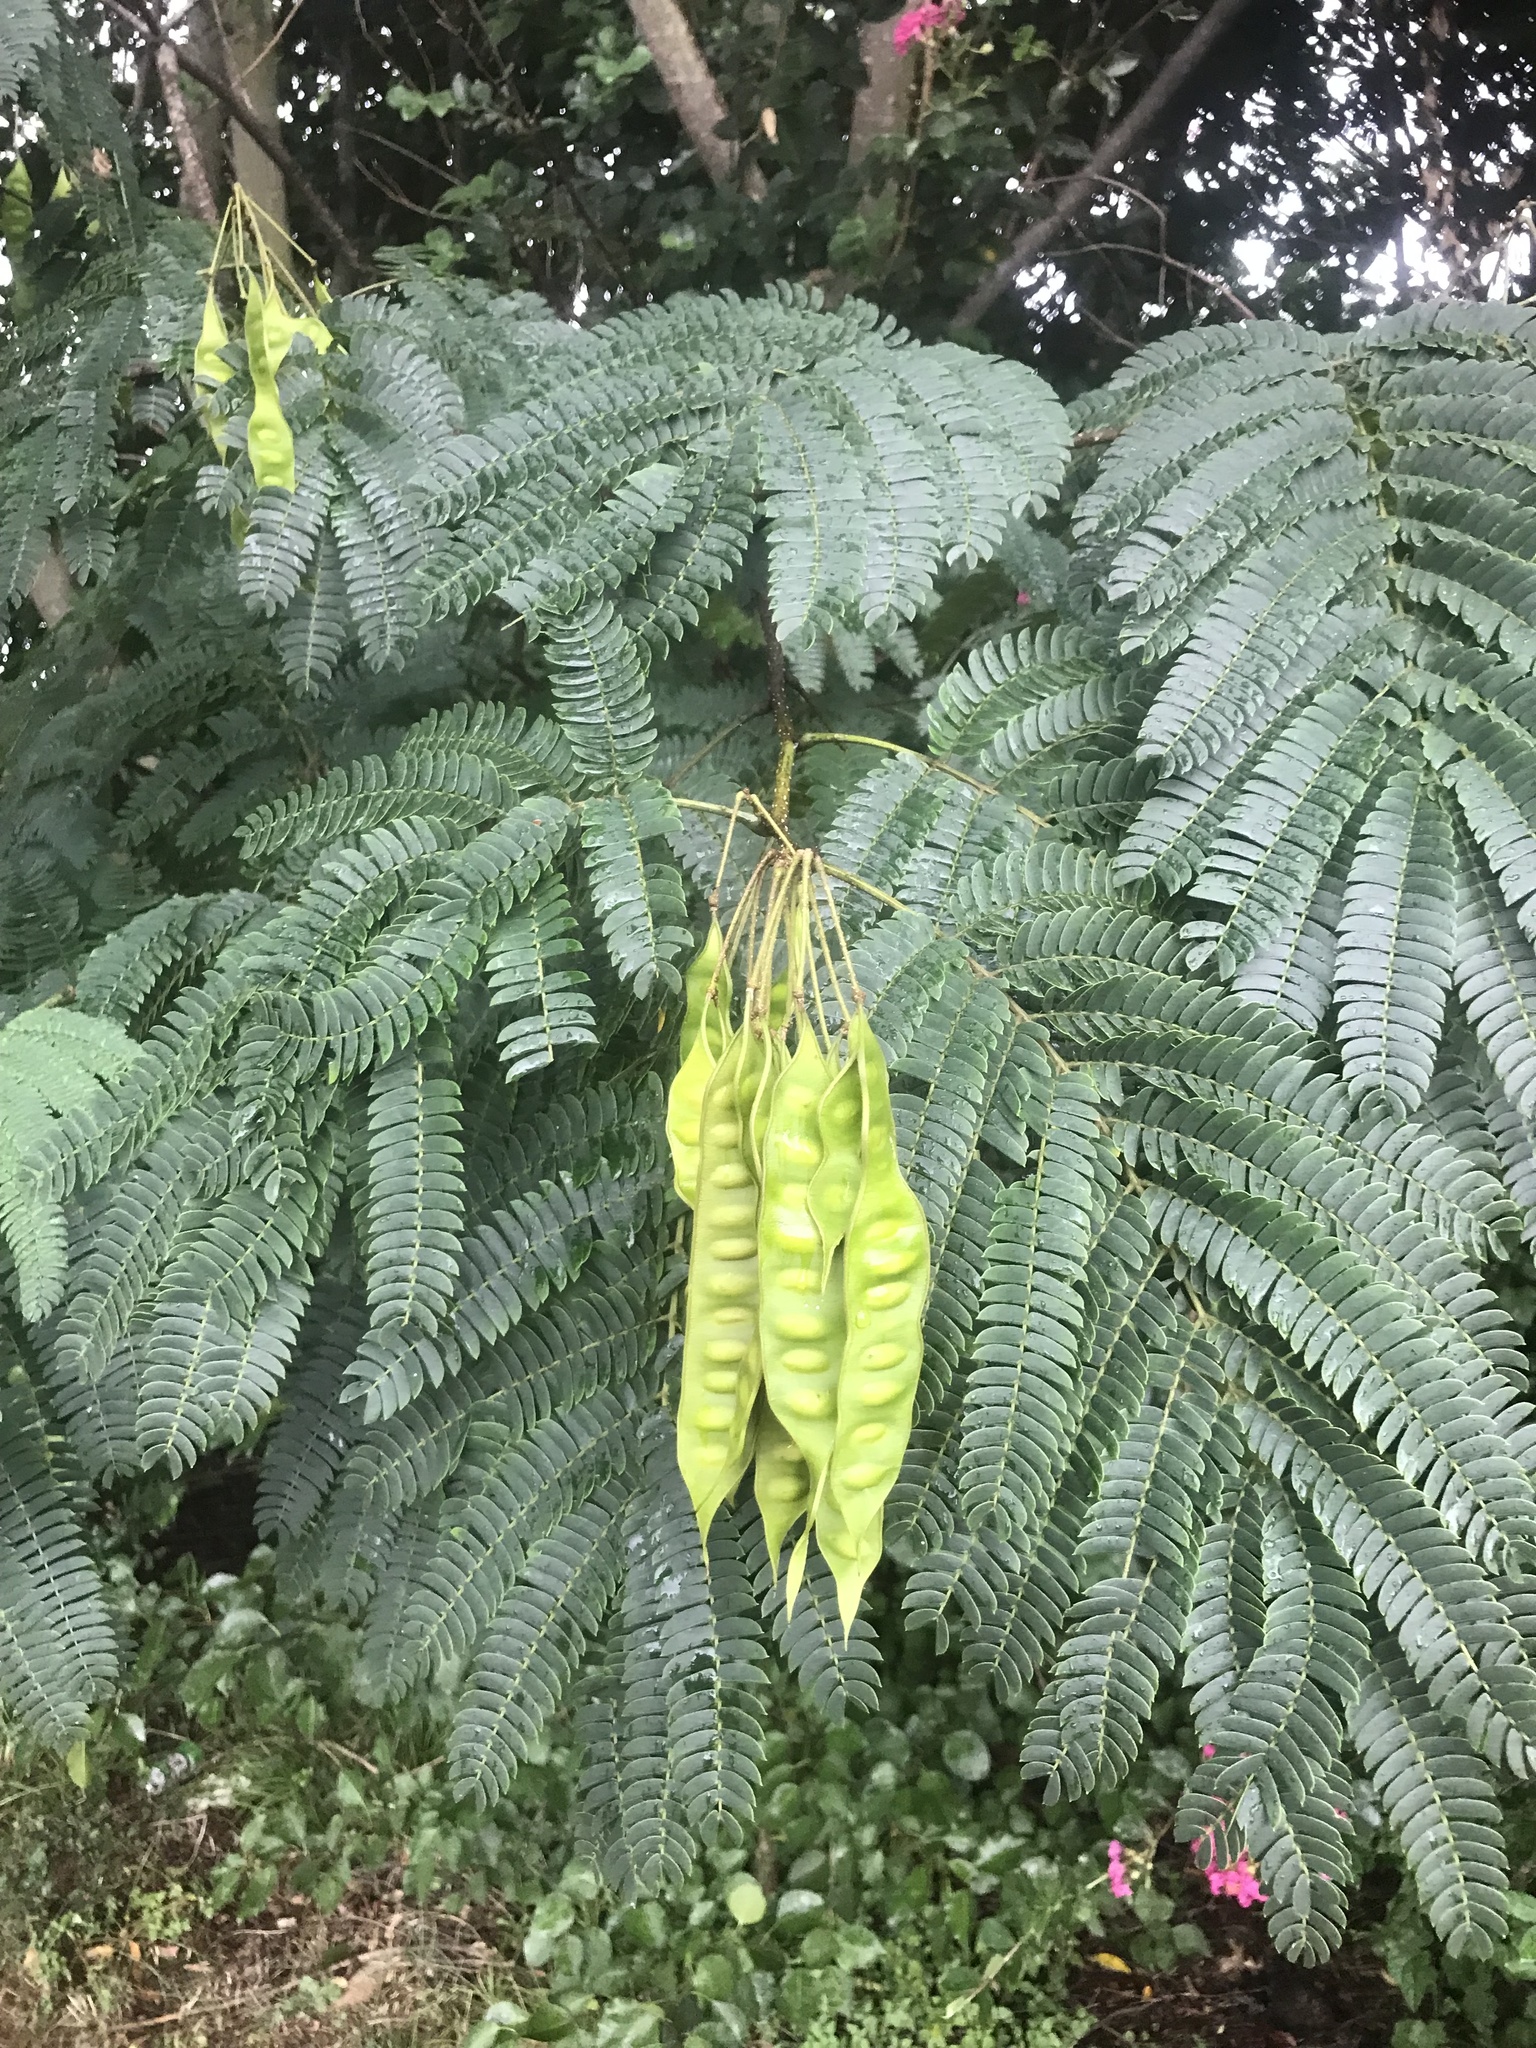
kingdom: Plantae
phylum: Tracheophyta
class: Magnoliopsida
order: Fabales
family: Fabaceae
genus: Albizia
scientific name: Albizia julibrissin
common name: Silktree
